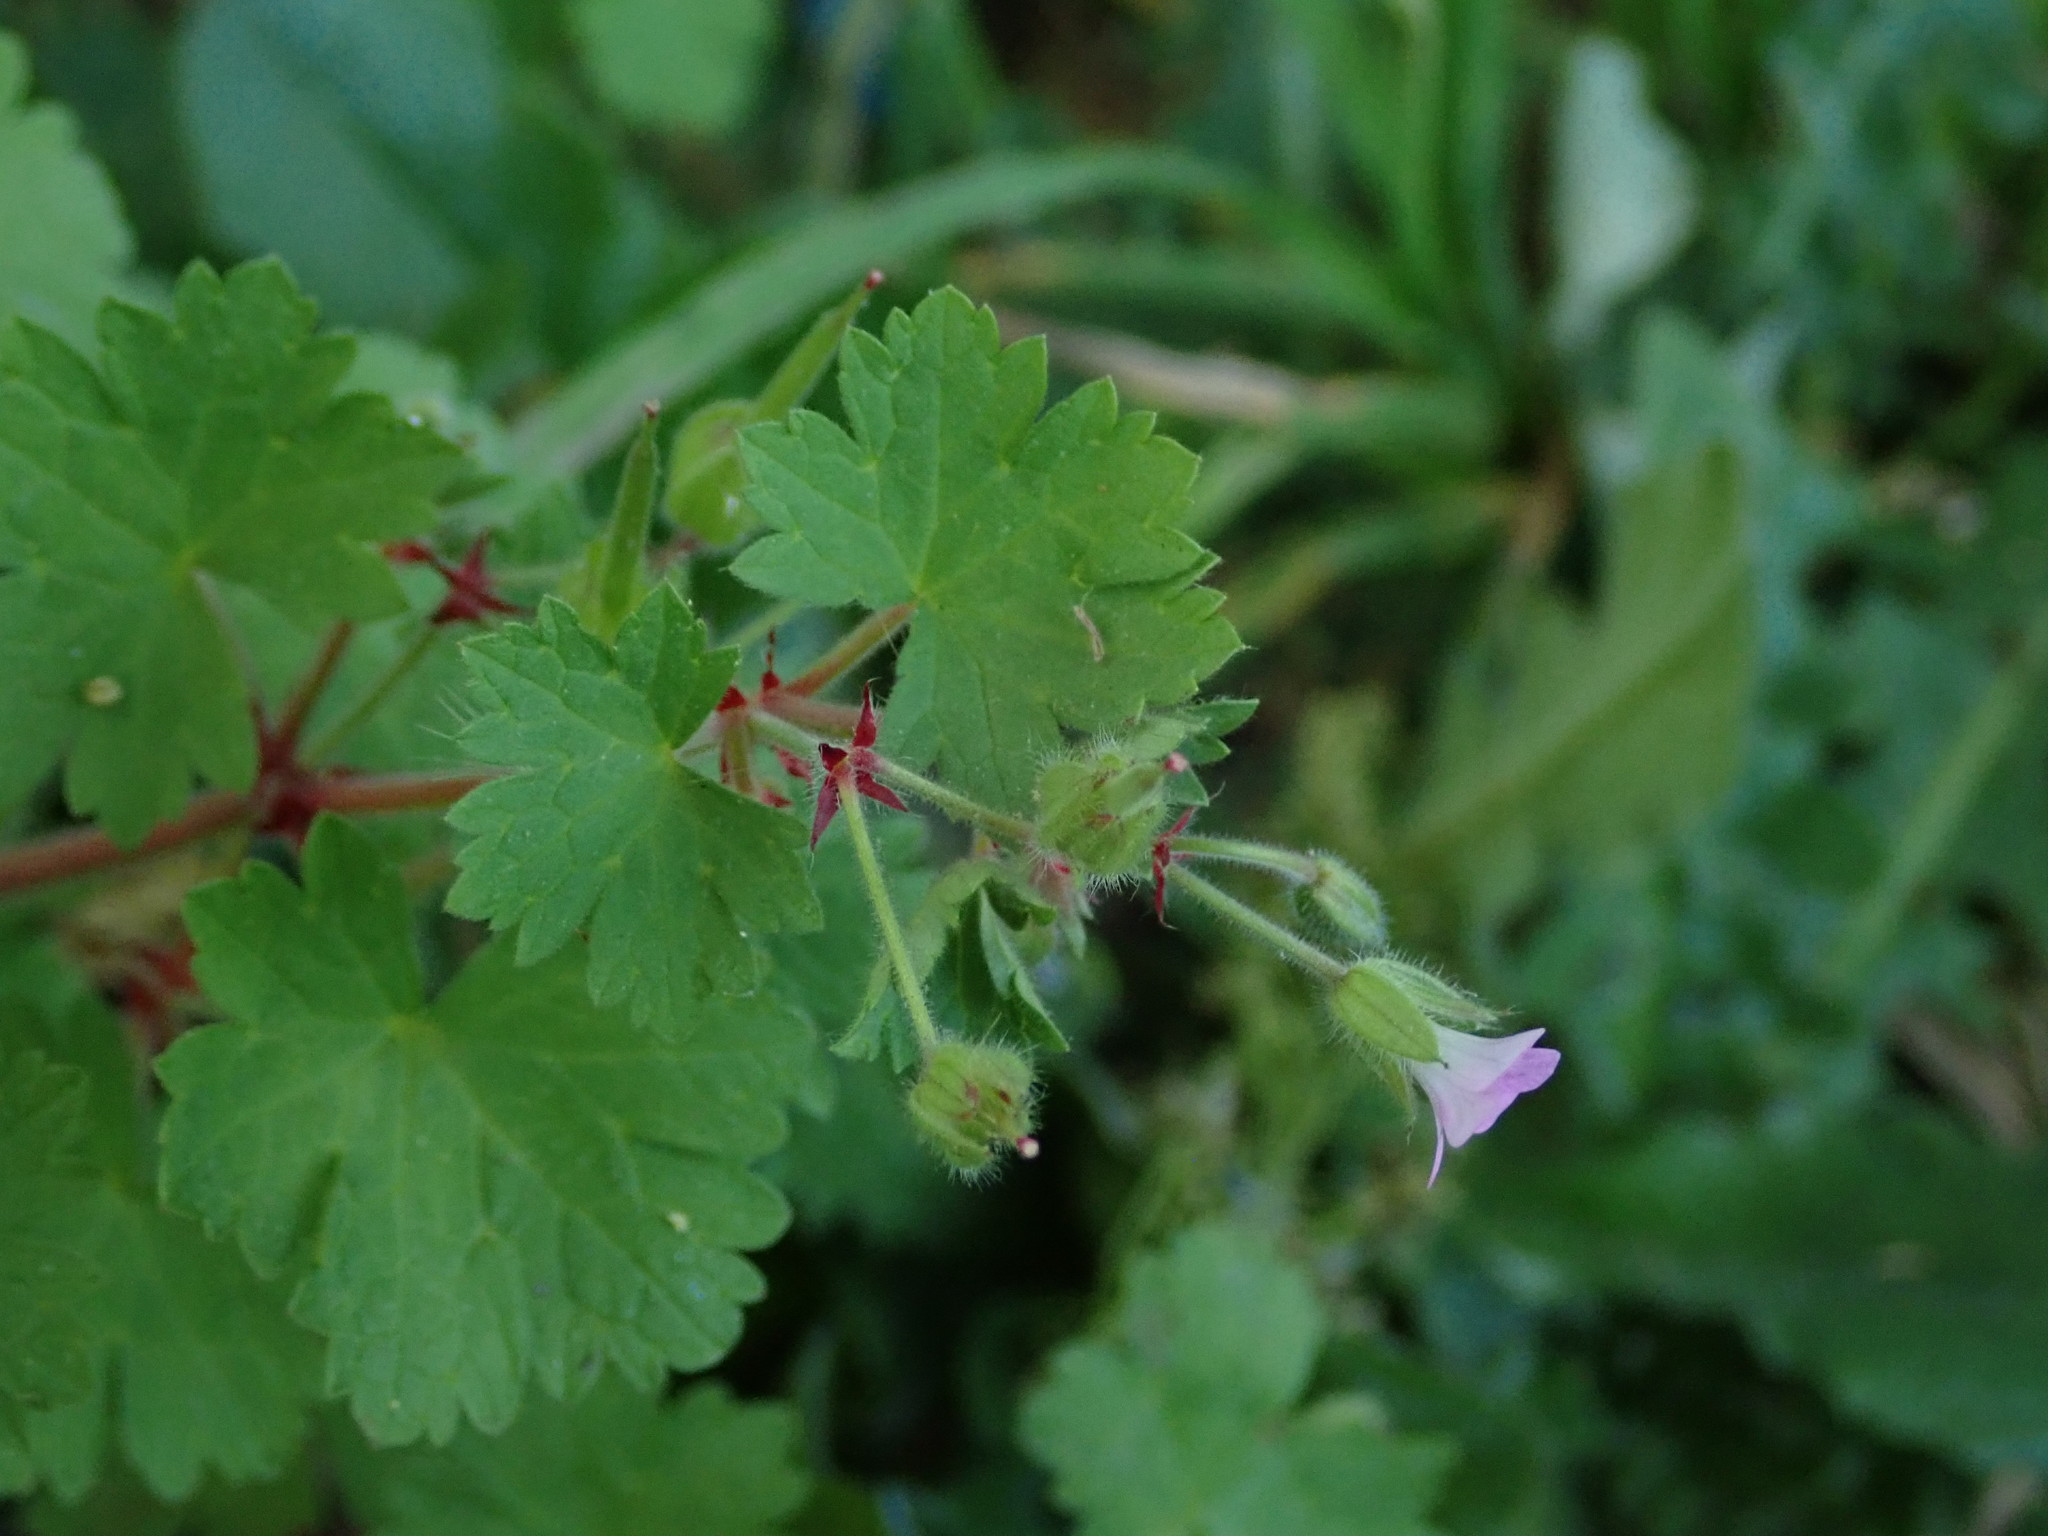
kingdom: Plantae
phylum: Tracheophyta
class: Magnoliopsida
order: Geraniales
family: Geraniaceae
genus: Geranium
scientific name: Geranium rotundifolium
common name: Round-leaved crane's-bill
